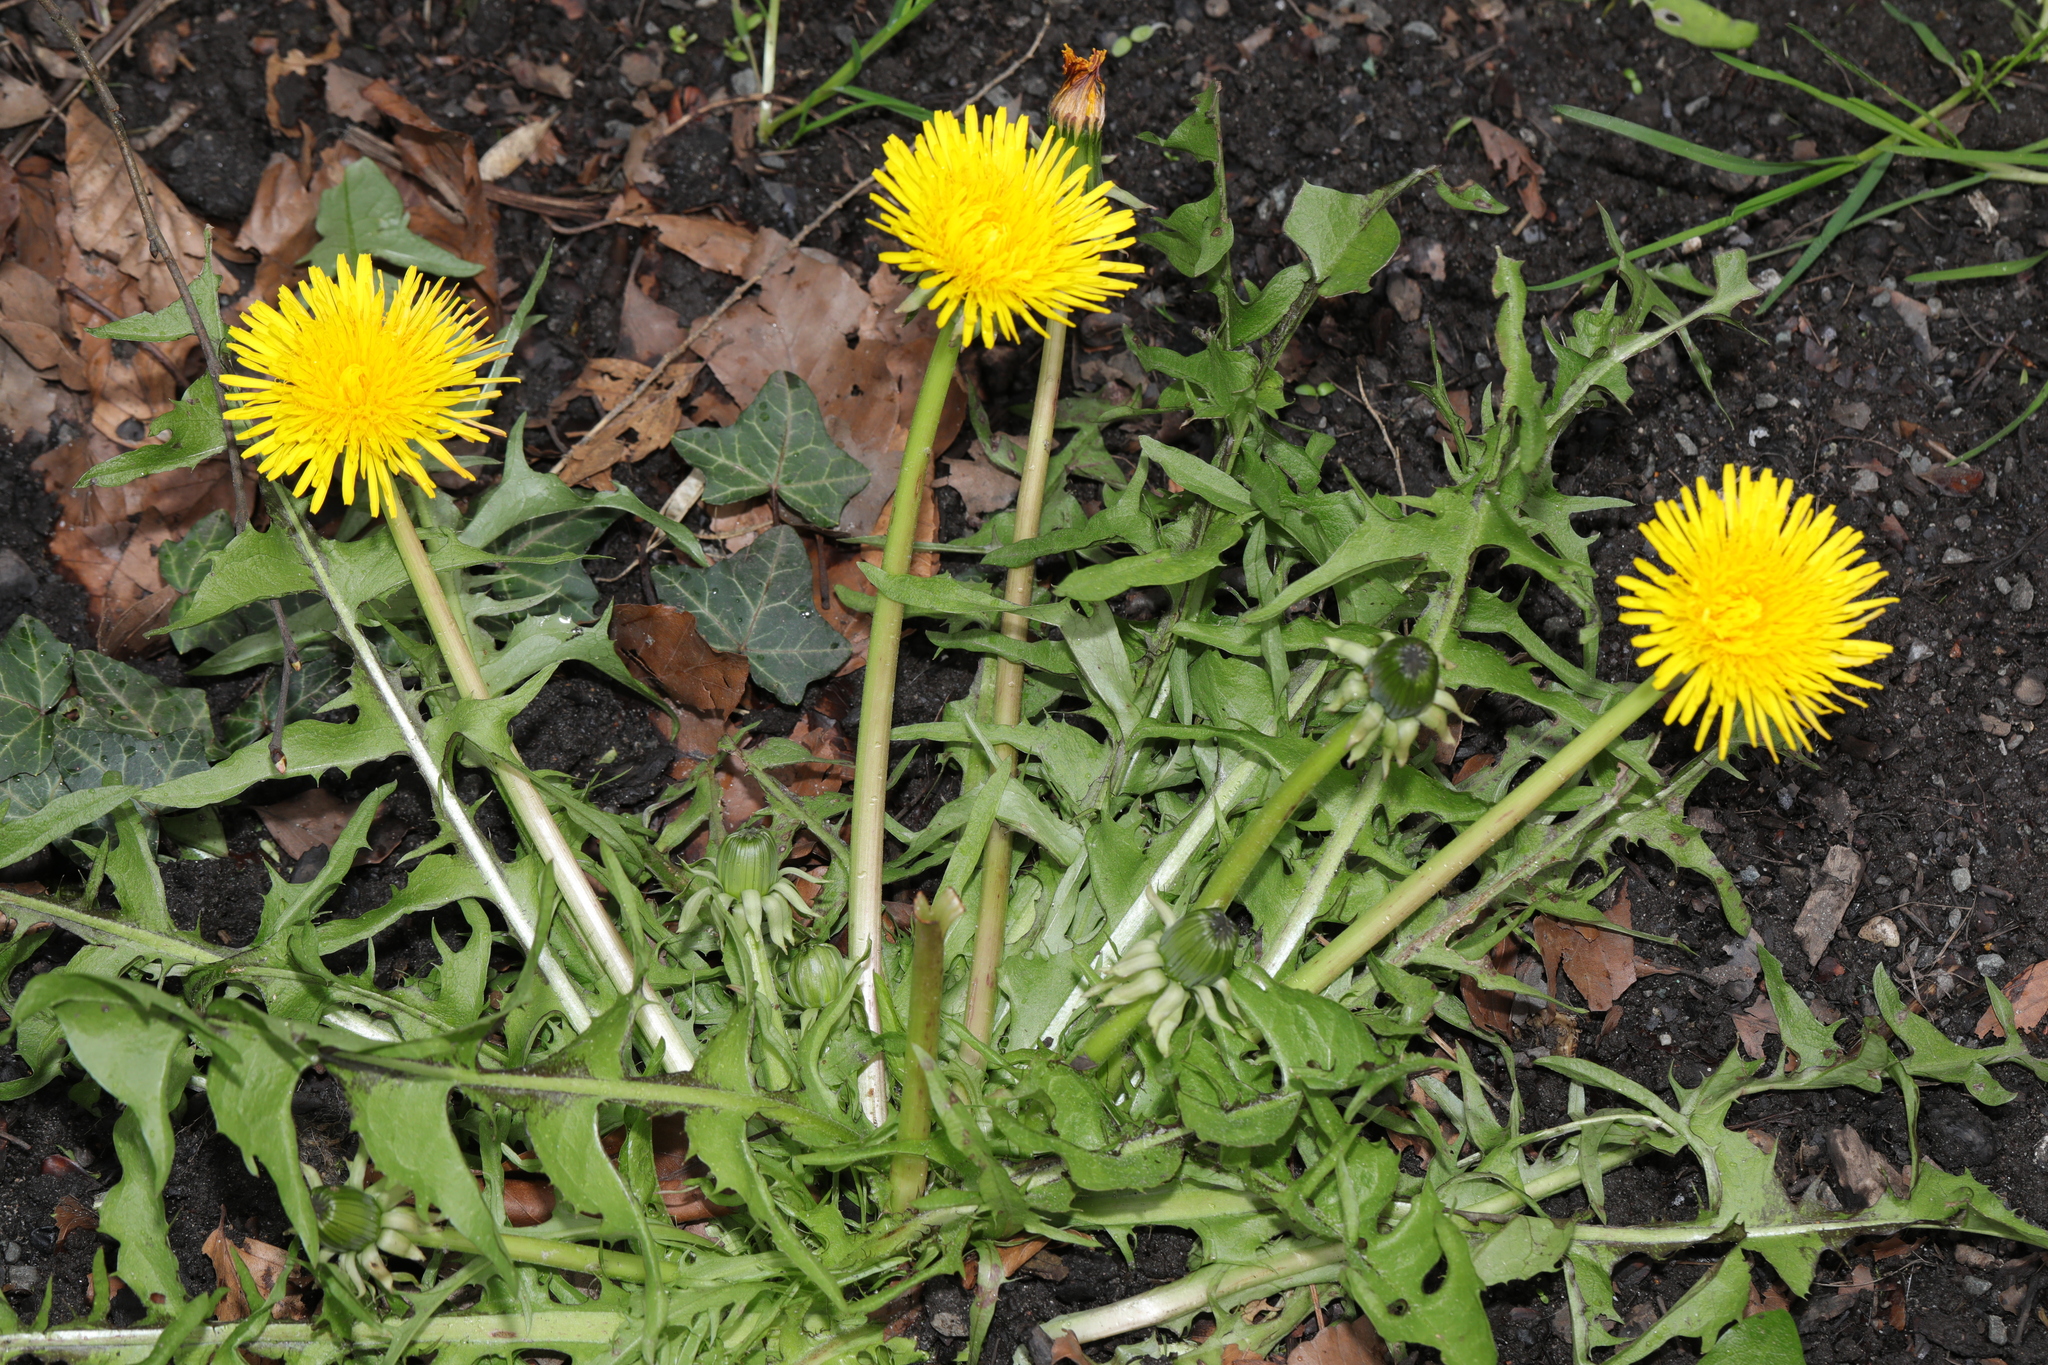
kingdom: Plantae
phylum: Tracheophyta
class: Magnoliopsida
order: Asterales
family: Asteraceae
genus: Taraxacum
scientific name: Taraxacum officinale
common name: Common dandelion
